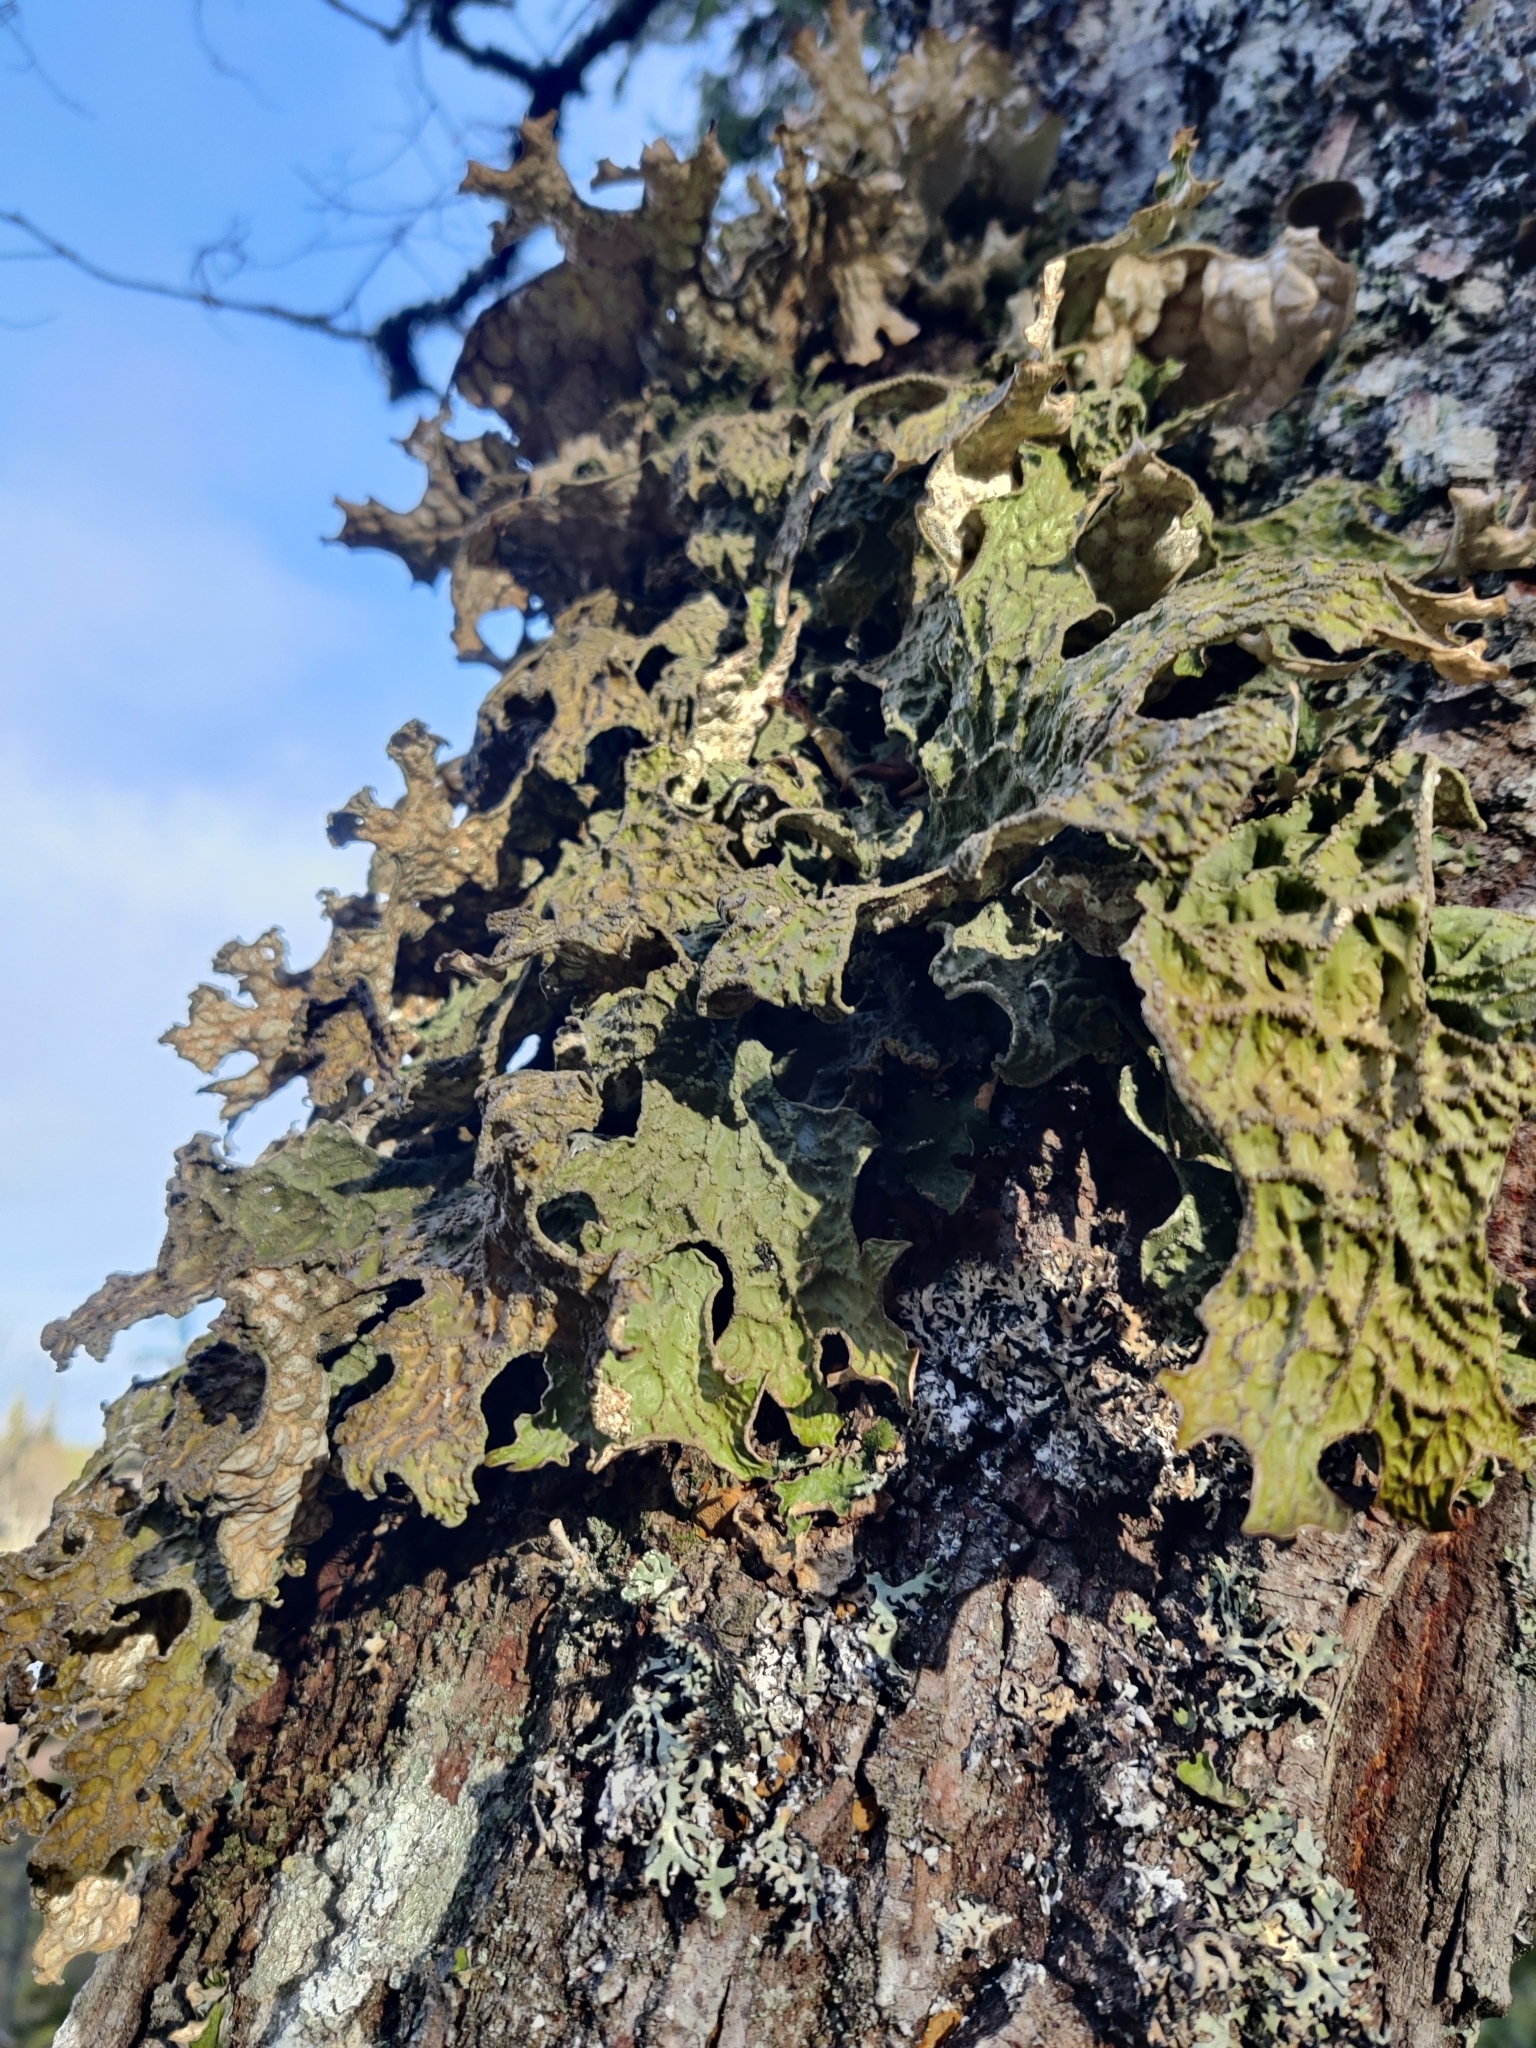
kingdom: Fungi
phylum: Ascomycota
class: Lecanoromycetes
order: Peltigerales
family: Lobariaceae
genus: Lobaria
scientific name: Lobaria pulmonaria
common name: Lungwort
